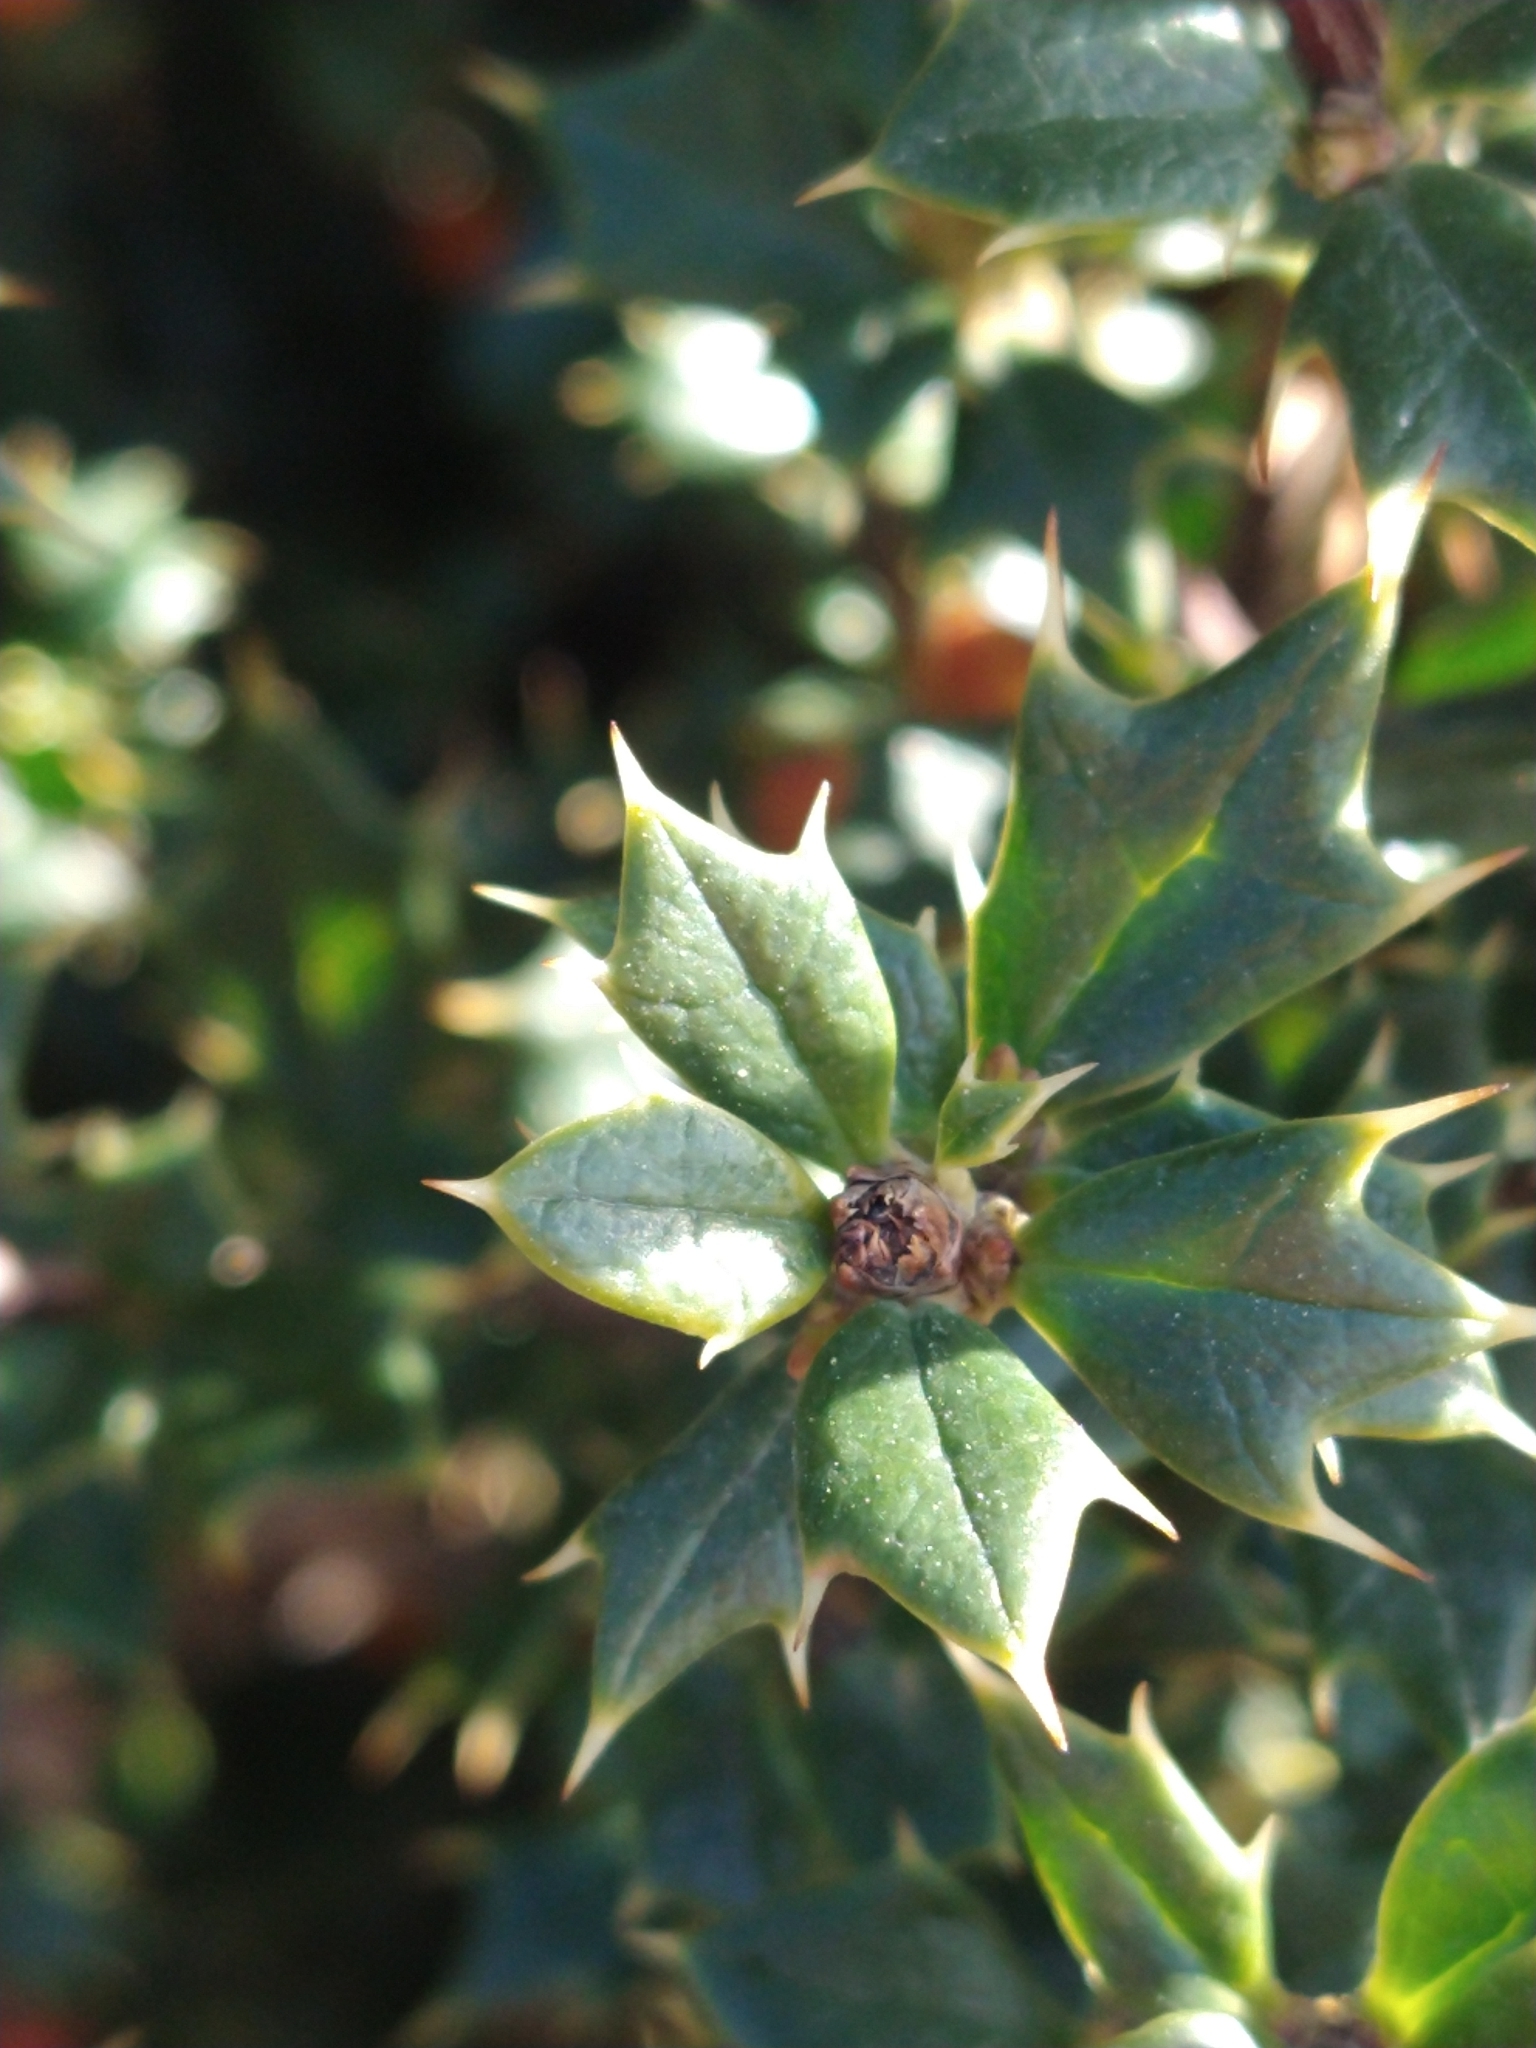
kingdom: Plantae
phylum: Tracheophyta
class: Magnoliopsida
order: Ranunculales
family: Berberidaceae
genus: Berberis
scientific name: Berberis ilicifolia
